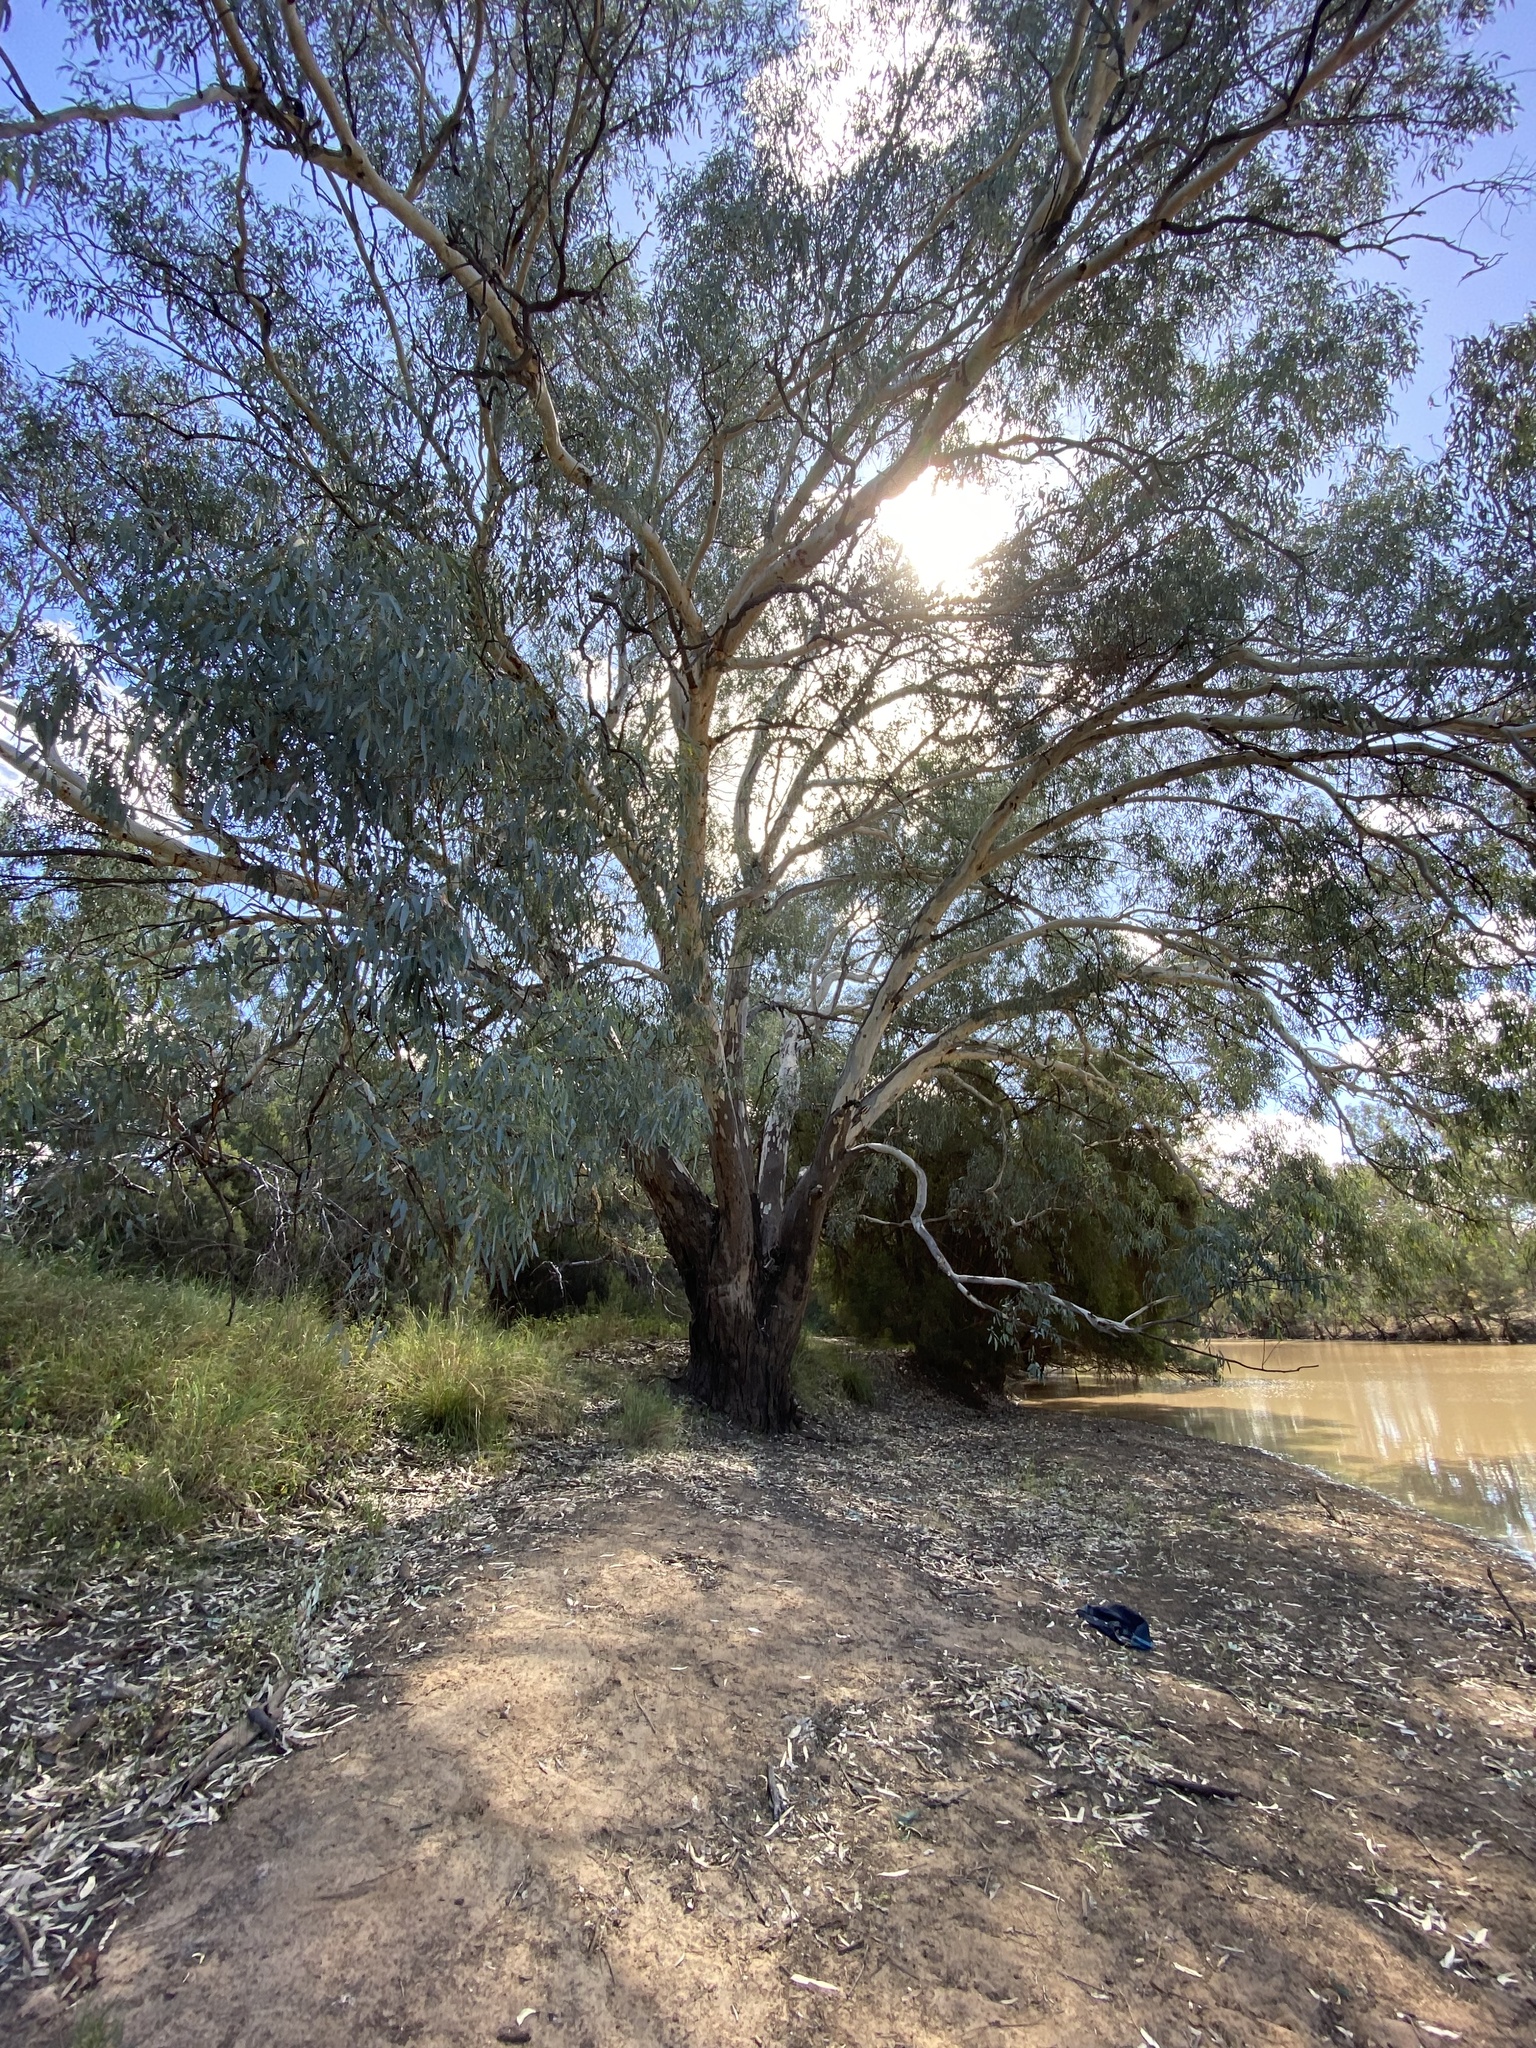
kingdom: Plantae
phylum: Tracheophyta
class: Magnoliopsida
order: Myrtales
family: Myrtaceae
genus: Eucalyptus
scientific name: Eucalyptus camaldulensis
